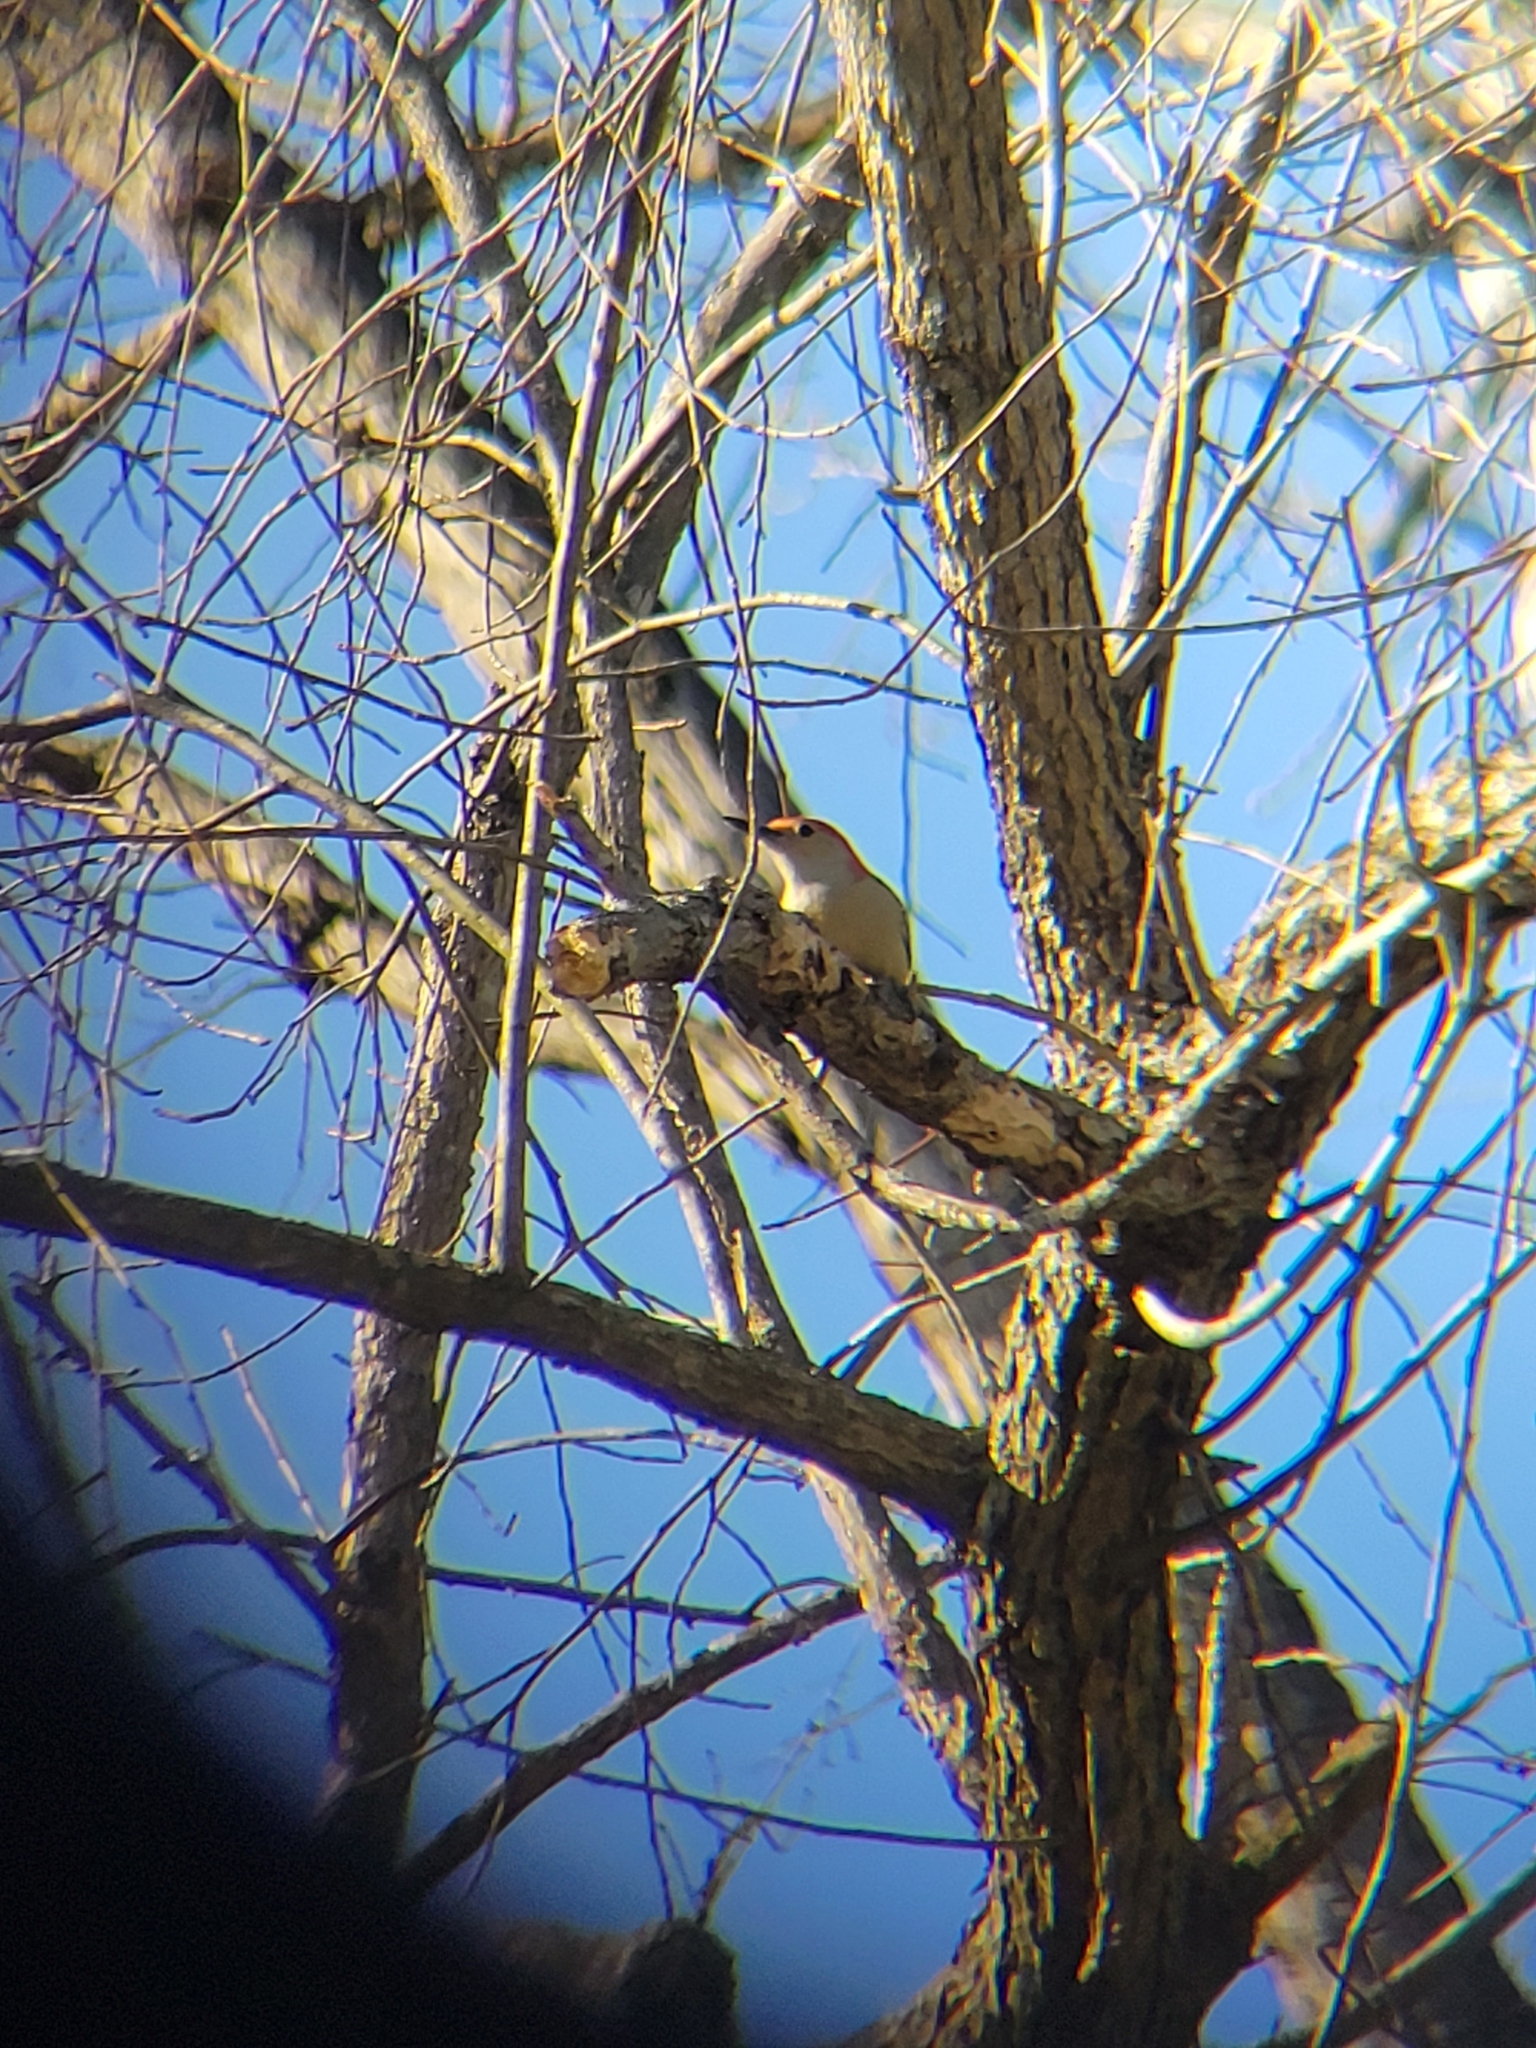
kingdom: Animalia
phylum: Chordata
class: Aves
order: Piciformes
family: Picidae
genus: Melanerpes
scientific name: Melanerpes carolinus
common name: Red-bellied woodpecker
